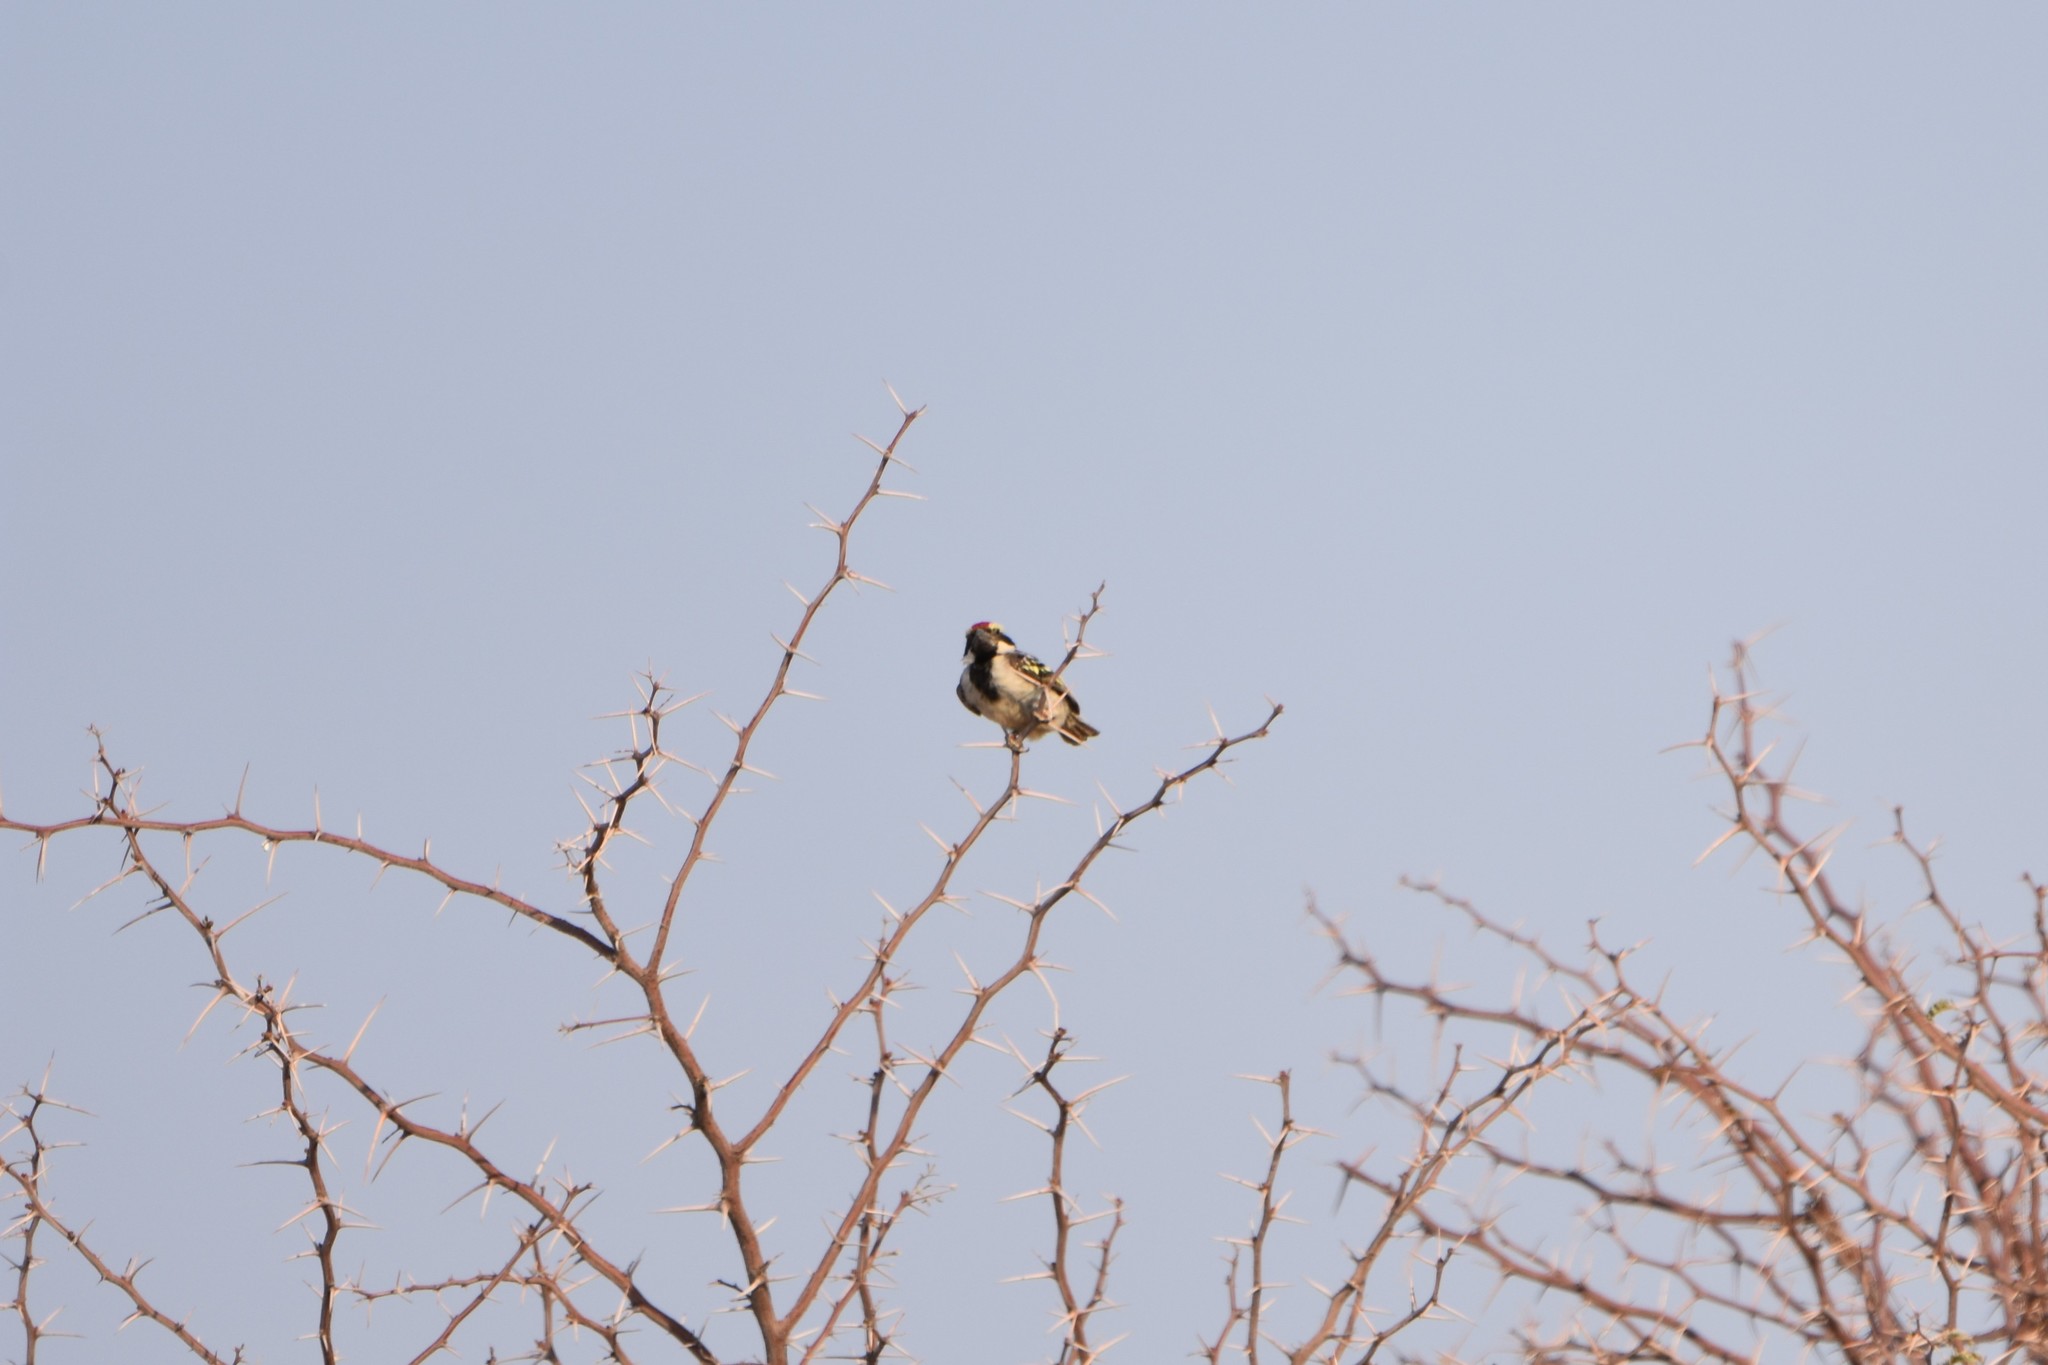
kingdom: Animalia
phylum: Chordata
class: Aves
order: Piciformes
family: Lybiidae
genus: Tricholaema
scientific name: Tricholaema leucomelas
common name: Acacia pied barbet
